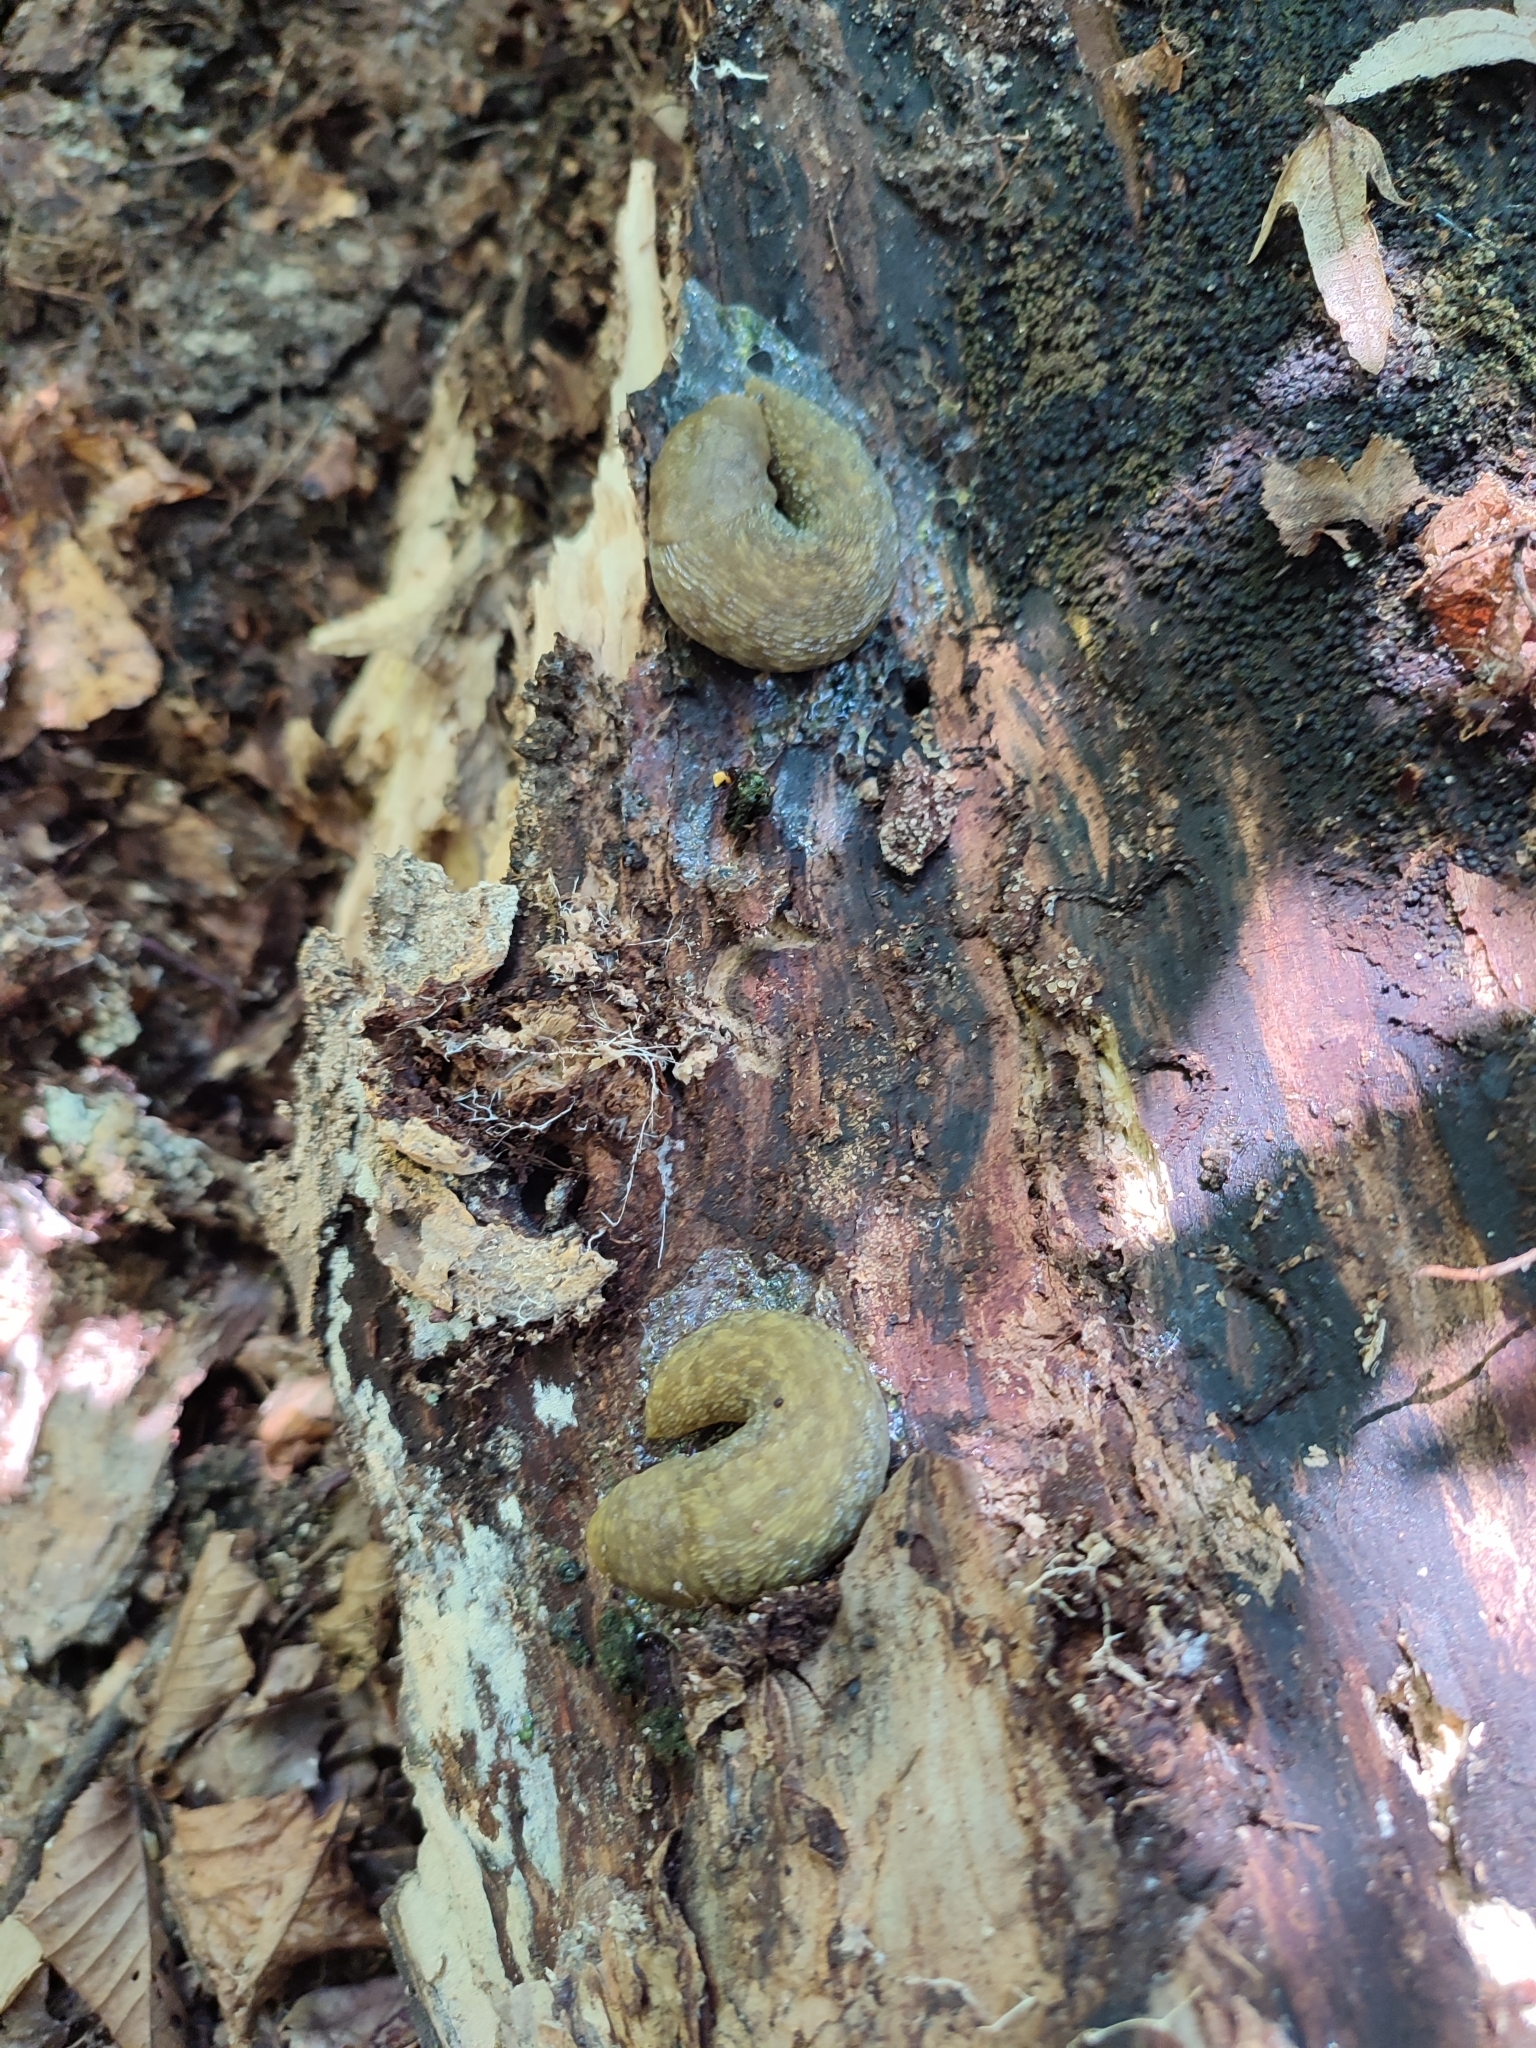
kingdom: Animalia
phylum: Mollusca
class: Gastropoda
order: Stylommatophora
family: Limacidae
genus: Limacus
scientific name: Limacus
